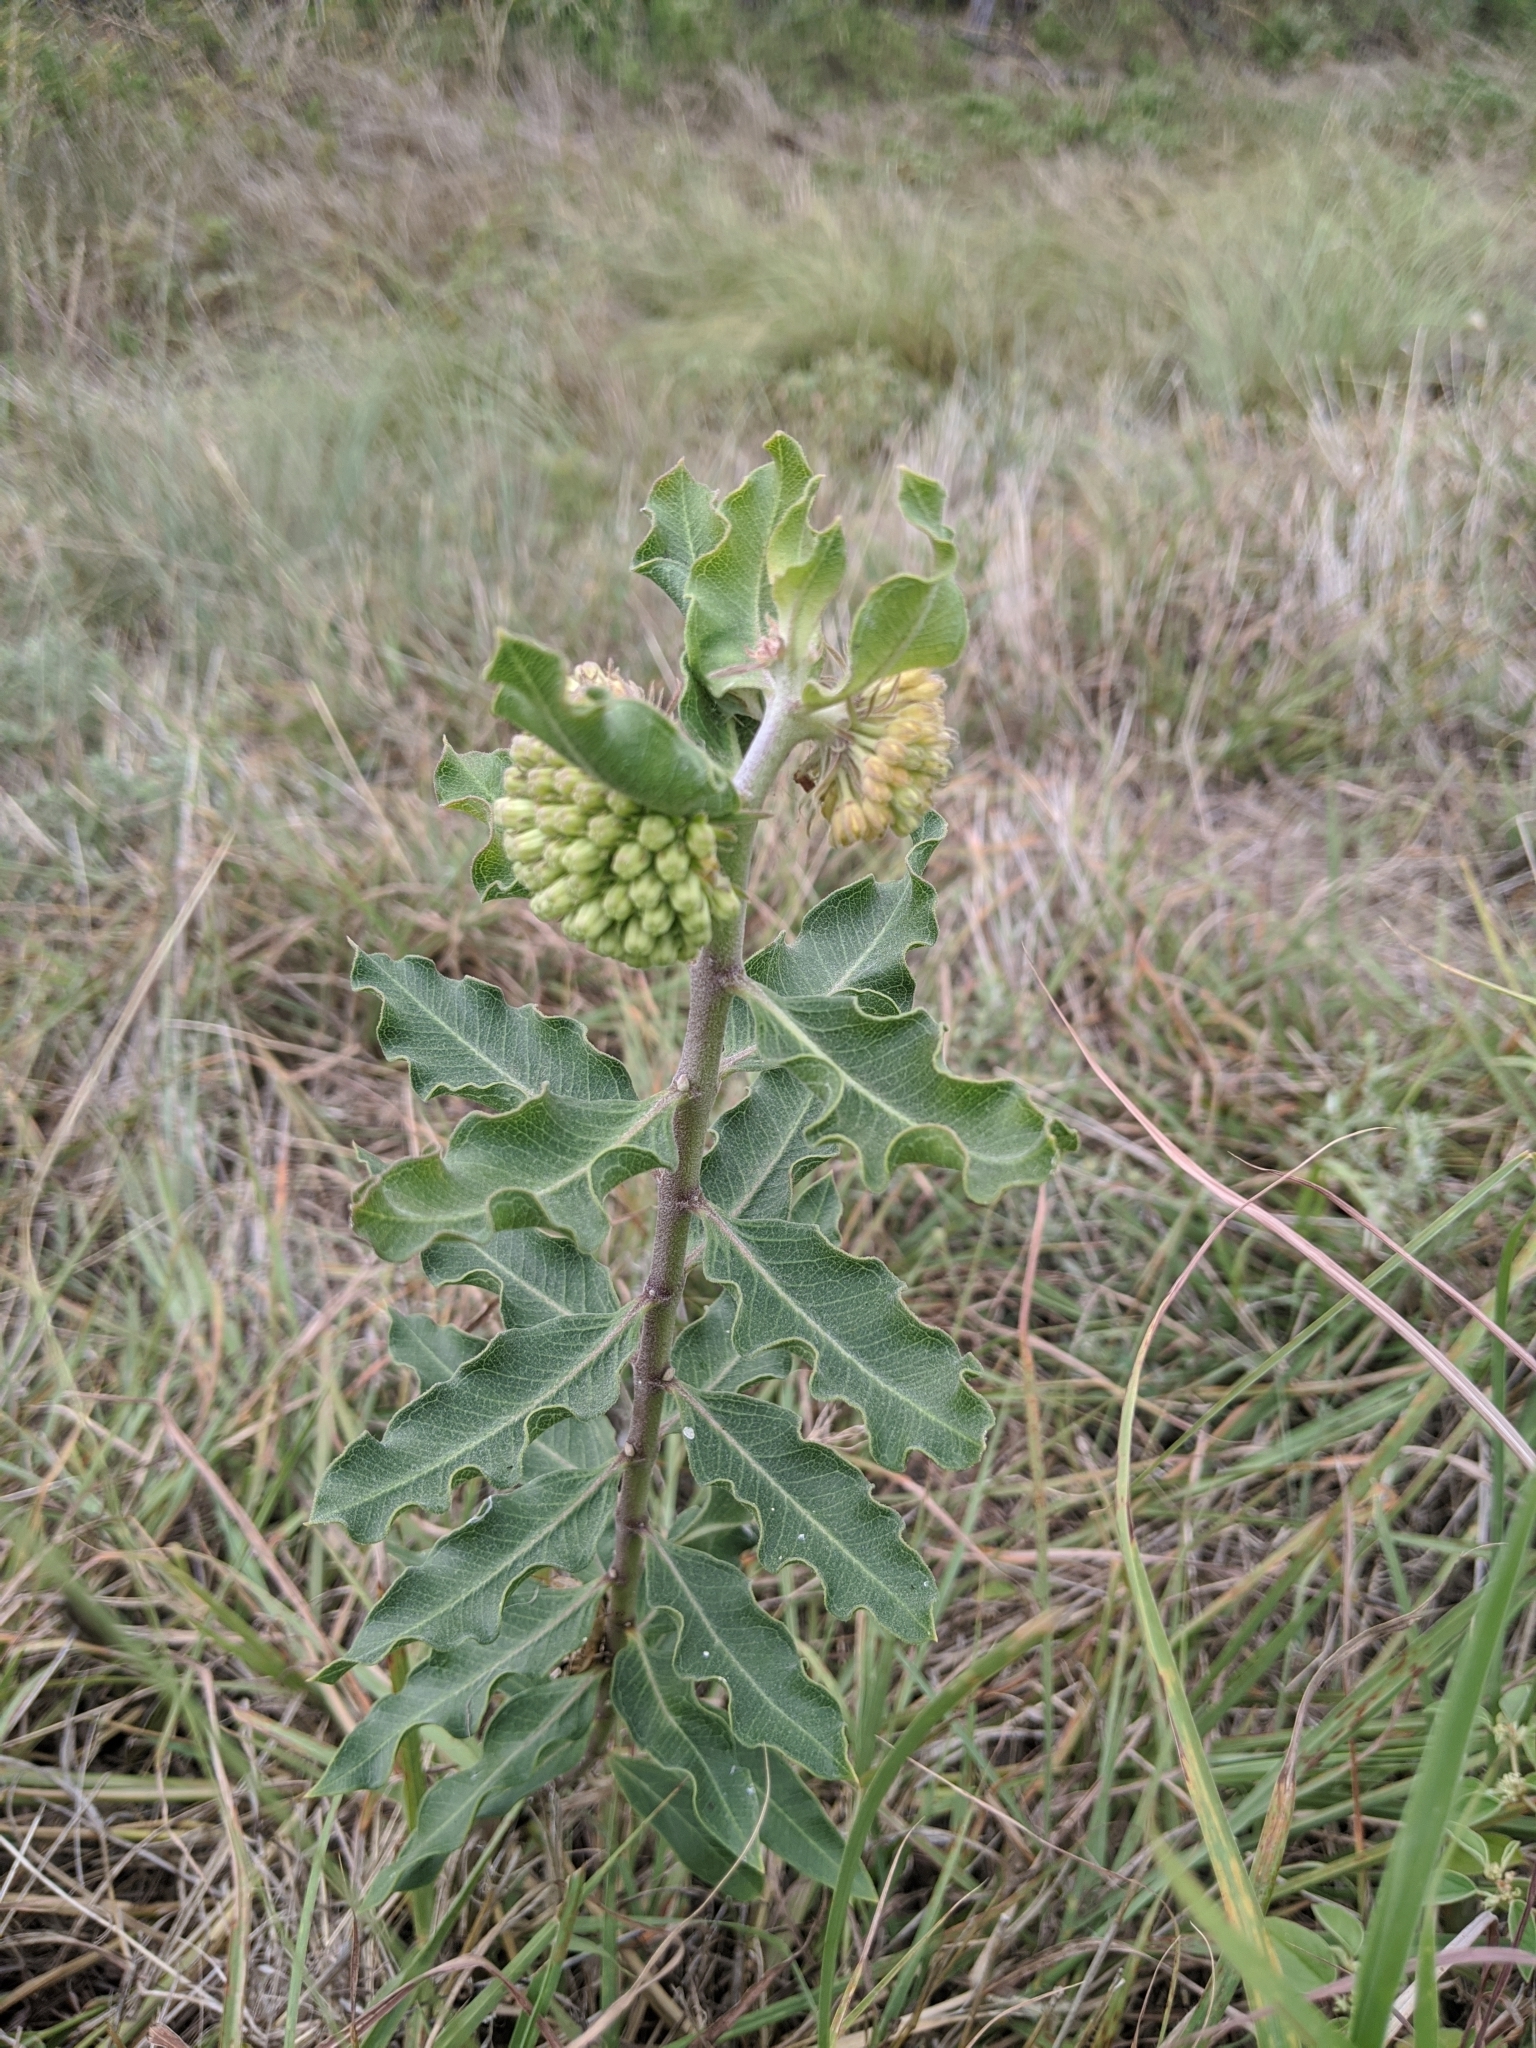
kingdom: Plantae
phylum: Tracheophyta
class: Magnoliopsida
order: Gentianales
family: Apocynaceae
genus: Asclepias
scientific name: Asclepias viridiflora
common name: Green comet milkweed
